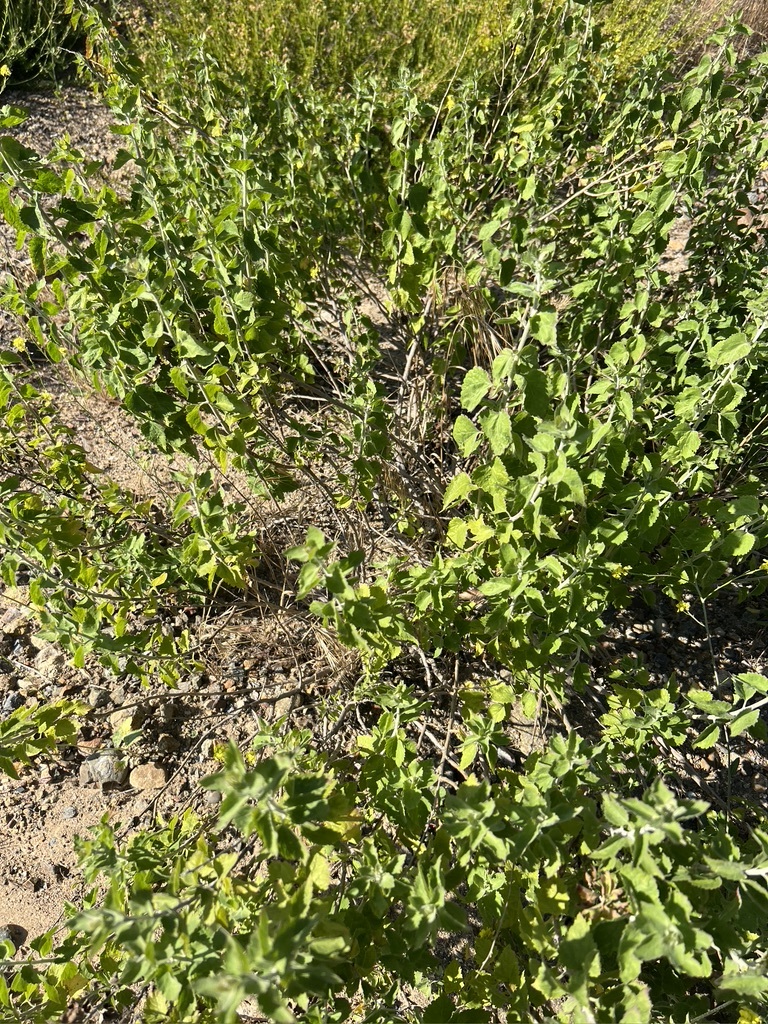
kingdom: Plantae
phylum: Tracheophyta
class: Magnoliopsida
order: Asterales
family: Asteraceae
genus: Brickellia
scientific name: Brickellia californica
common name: California brickellbush
